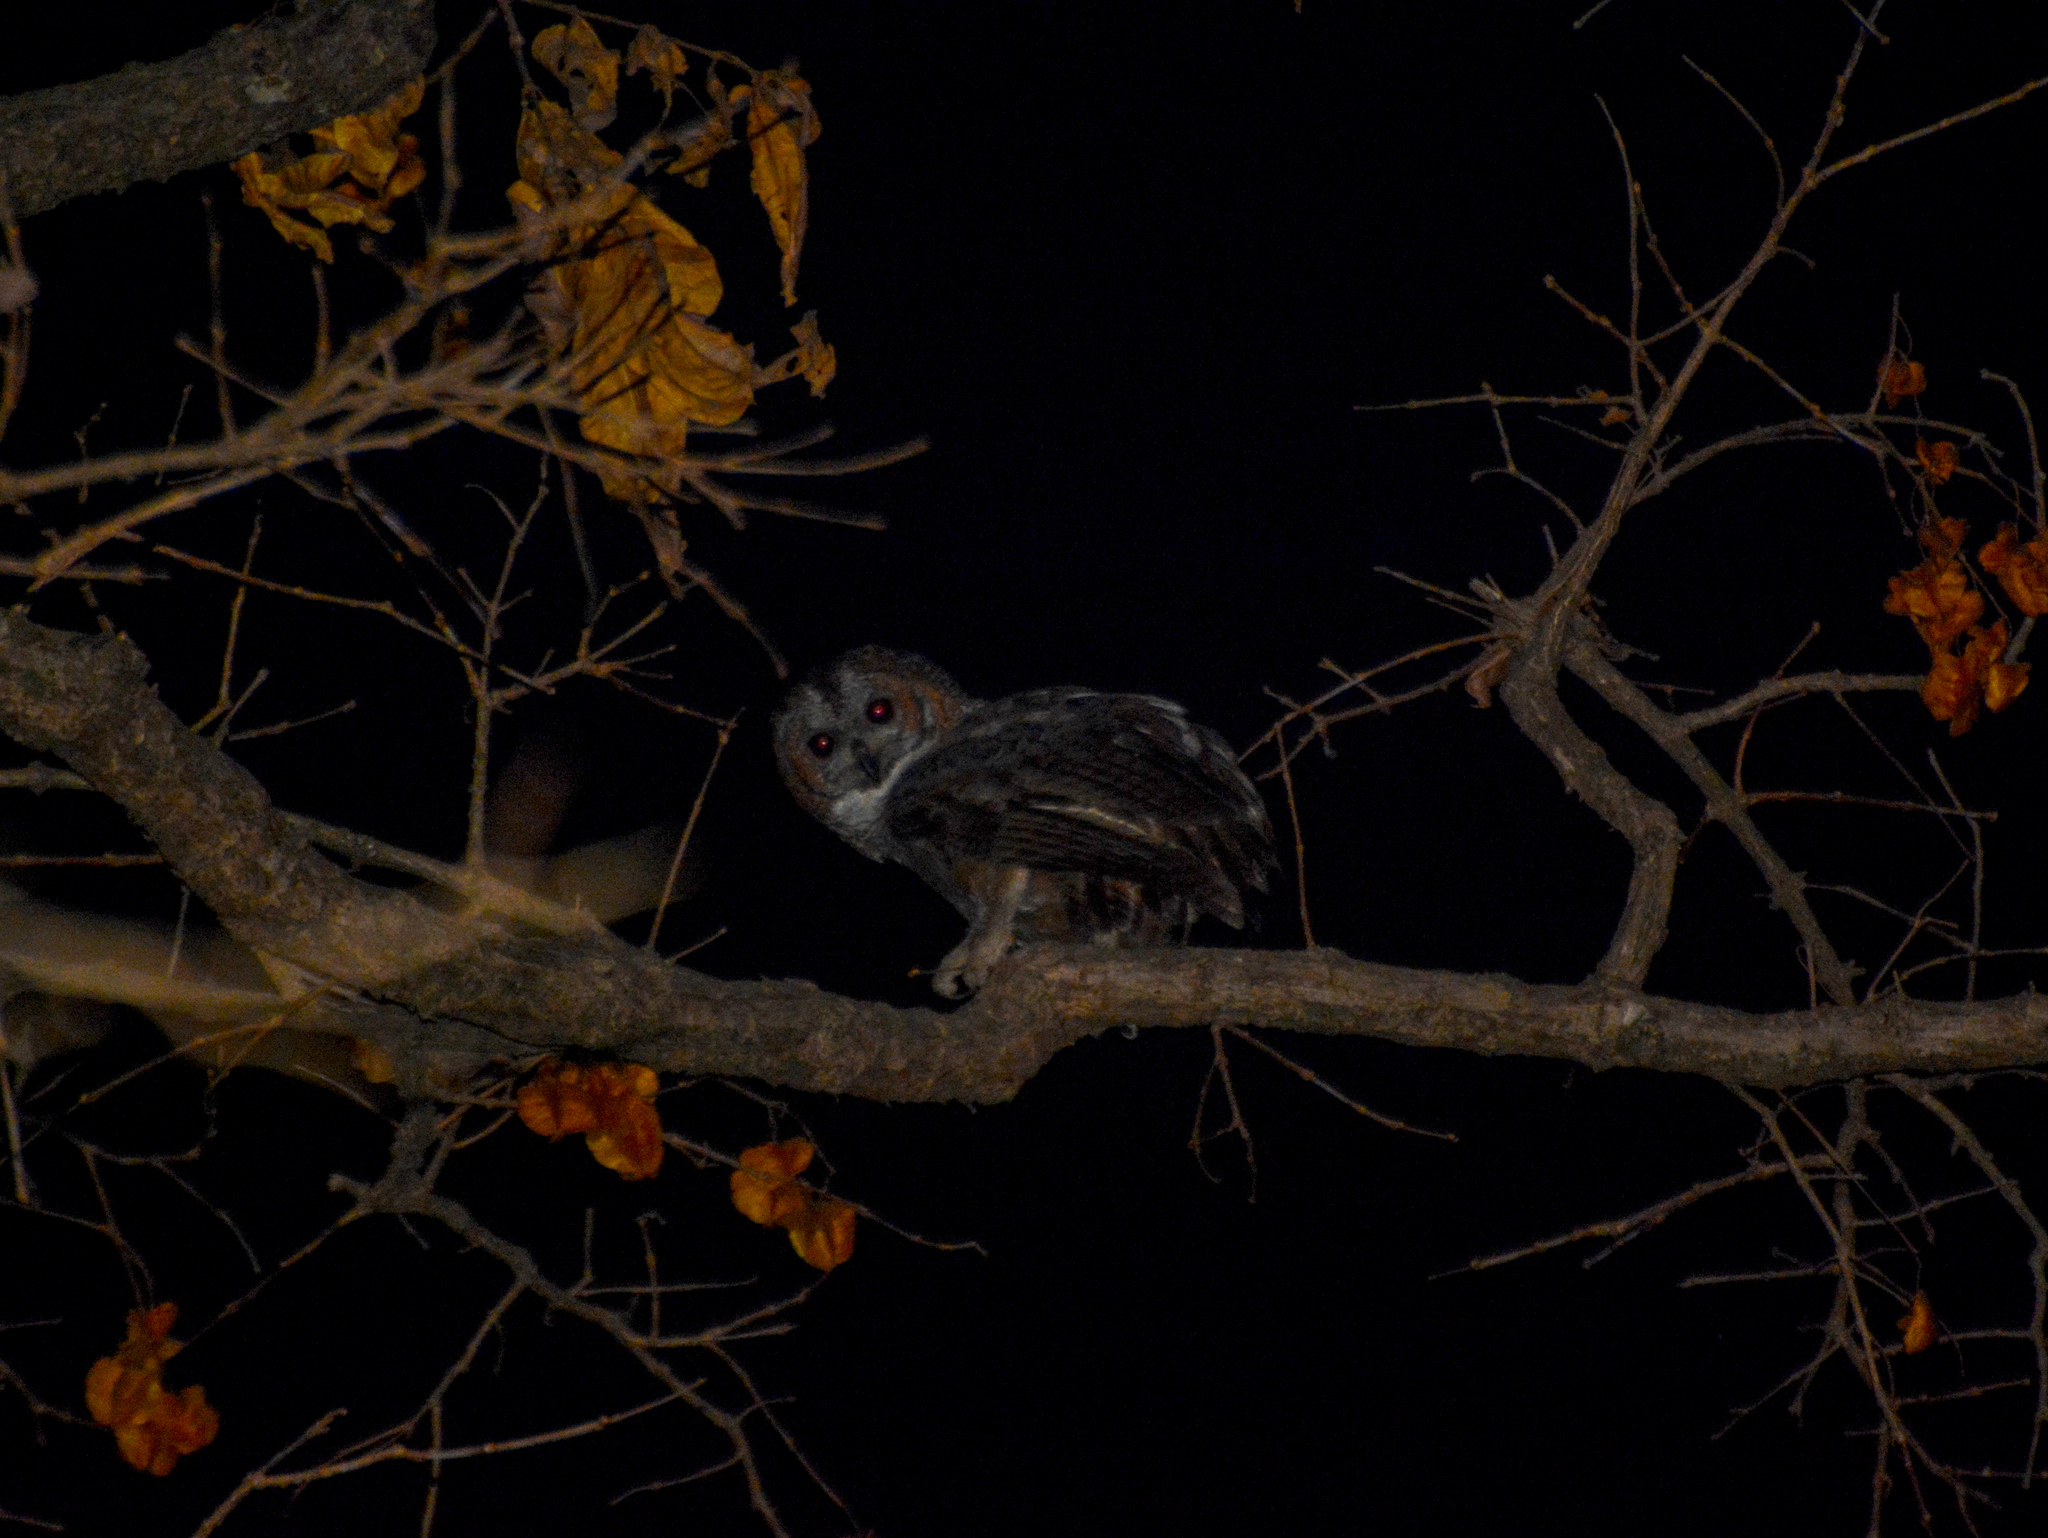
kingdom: Animalia
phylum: Chordata
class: Aves
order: Strigiformes
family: Strigidae
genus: Strix
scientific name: Strix ocellata
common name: Mottled wood owl
